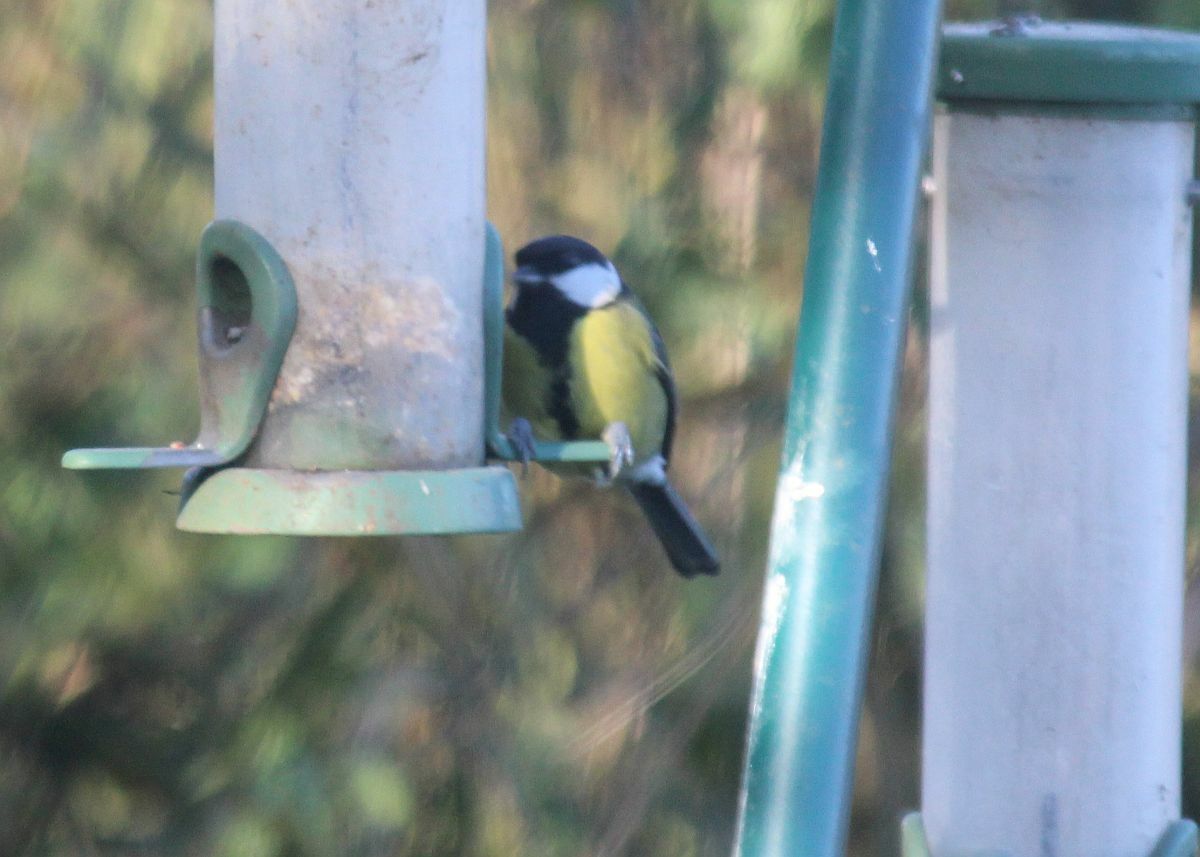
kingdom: Animalia
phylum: Chordata
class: Aves
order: Passeriformes
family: Paridae
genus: Parus
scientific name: Parus major
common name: Great tit
